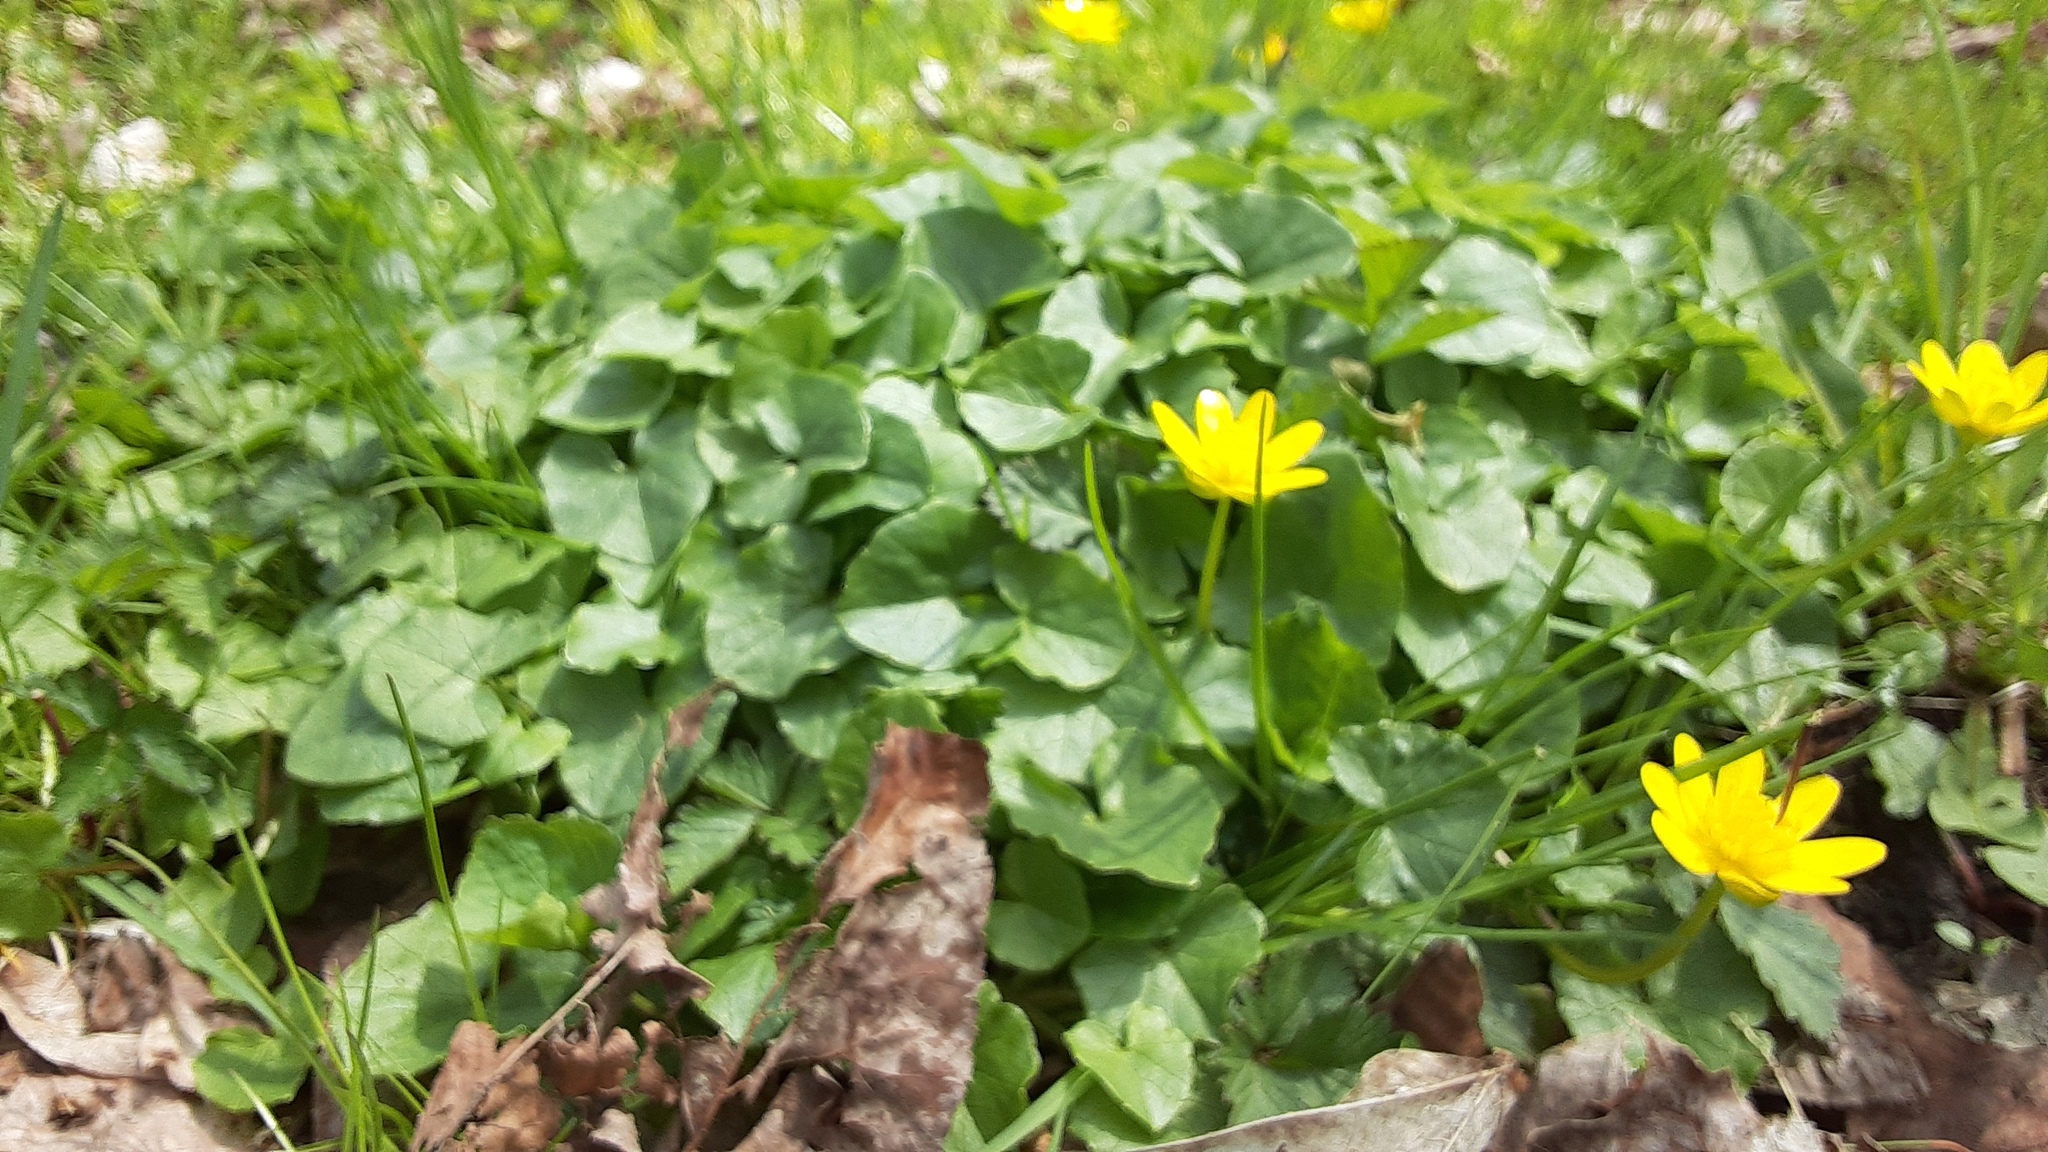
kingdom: Plantae
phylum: Tracheophyta
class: Magnoliopsida
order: Ranunculales
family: Ranunculaceae
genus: Ficaria
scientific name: Ficaria verna
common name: Lesser celandine
